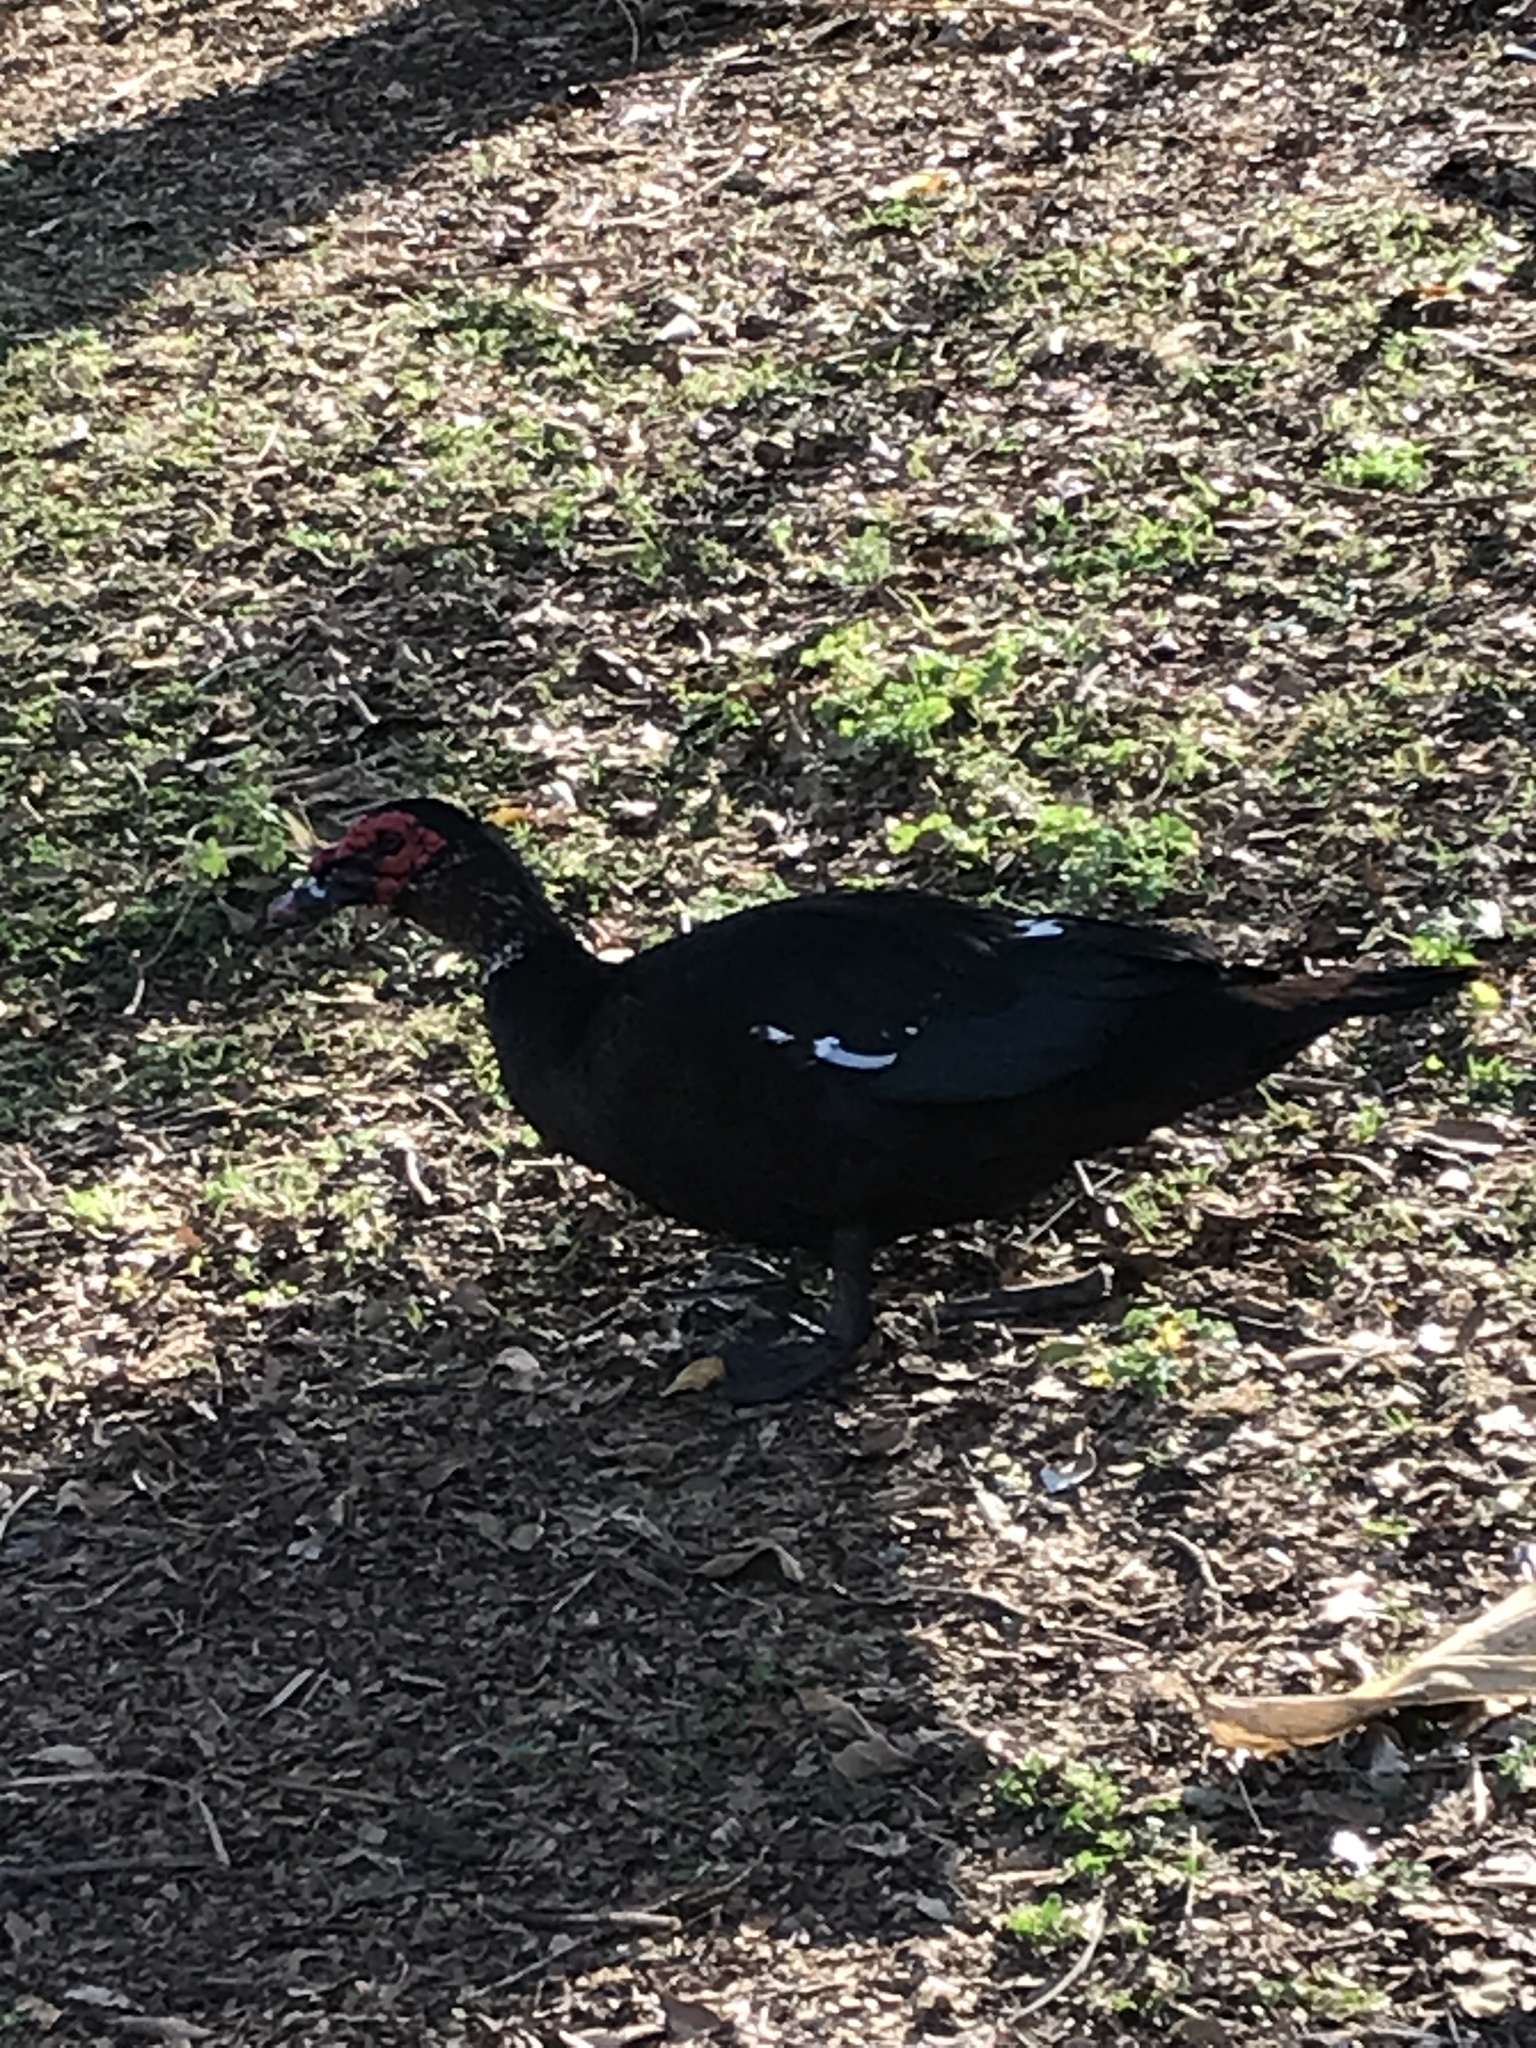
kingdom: Animalia
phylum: Chordata
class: Aves
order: Anseriformes
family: Anatidae
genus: Cairina
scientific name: Cairina moschata
